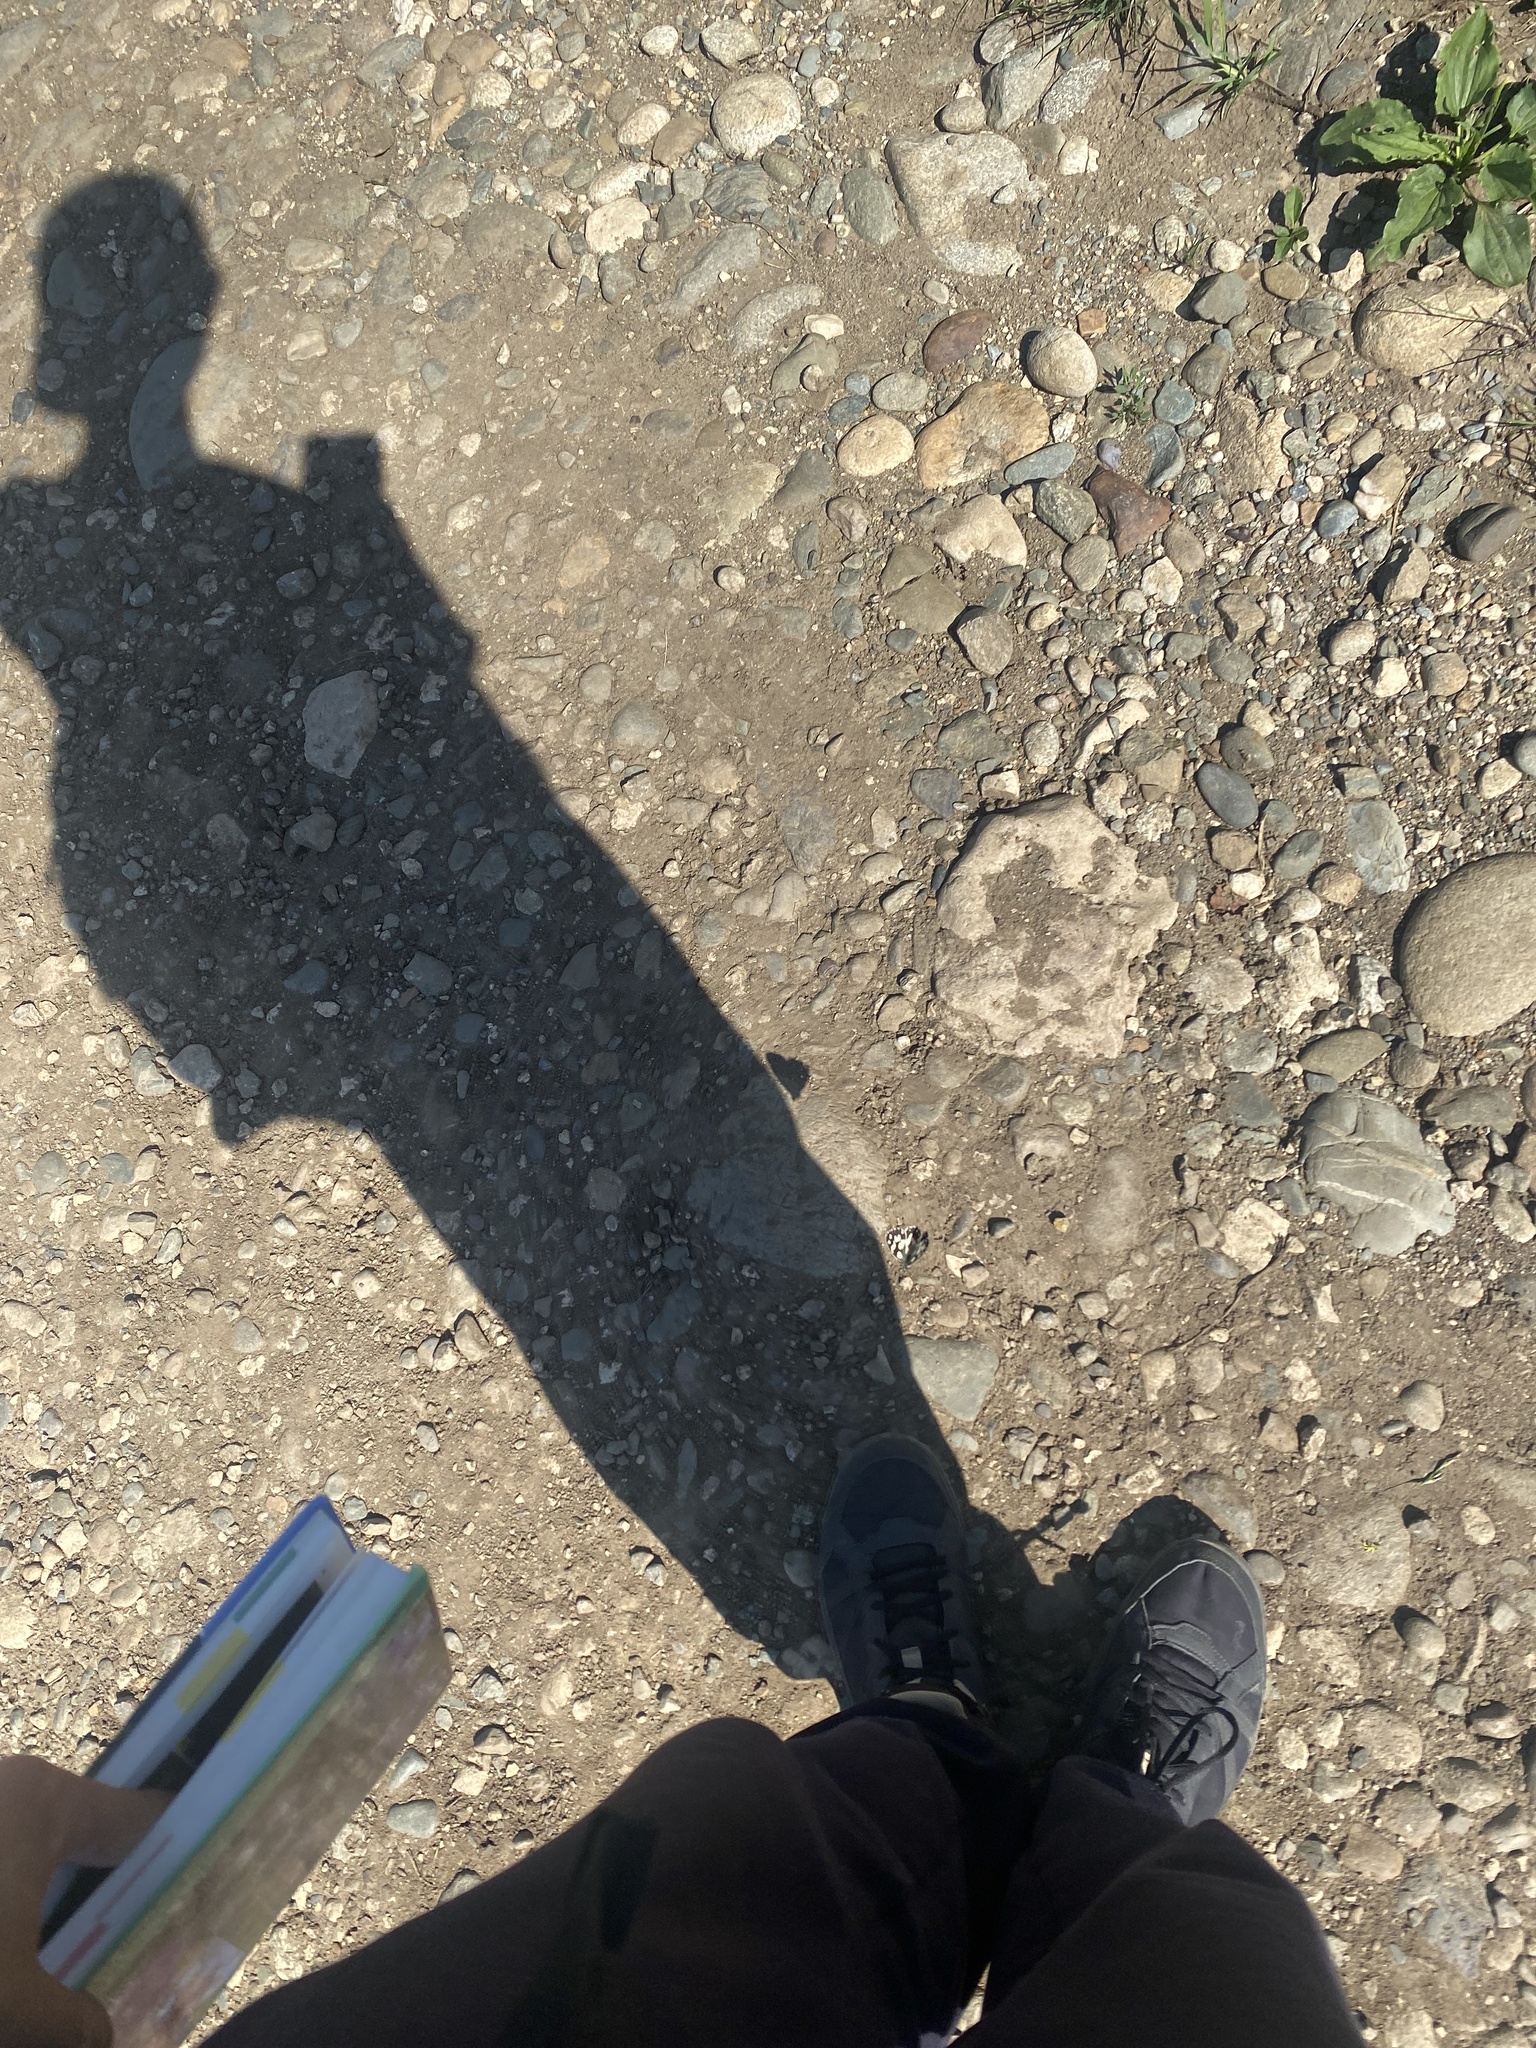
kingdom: Animalia
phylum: Arthropoda
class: Insecta
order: Lepidoptera
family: Nymphalidae
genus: Melanargia
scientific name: Melanargia galathea
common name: Marbled white
